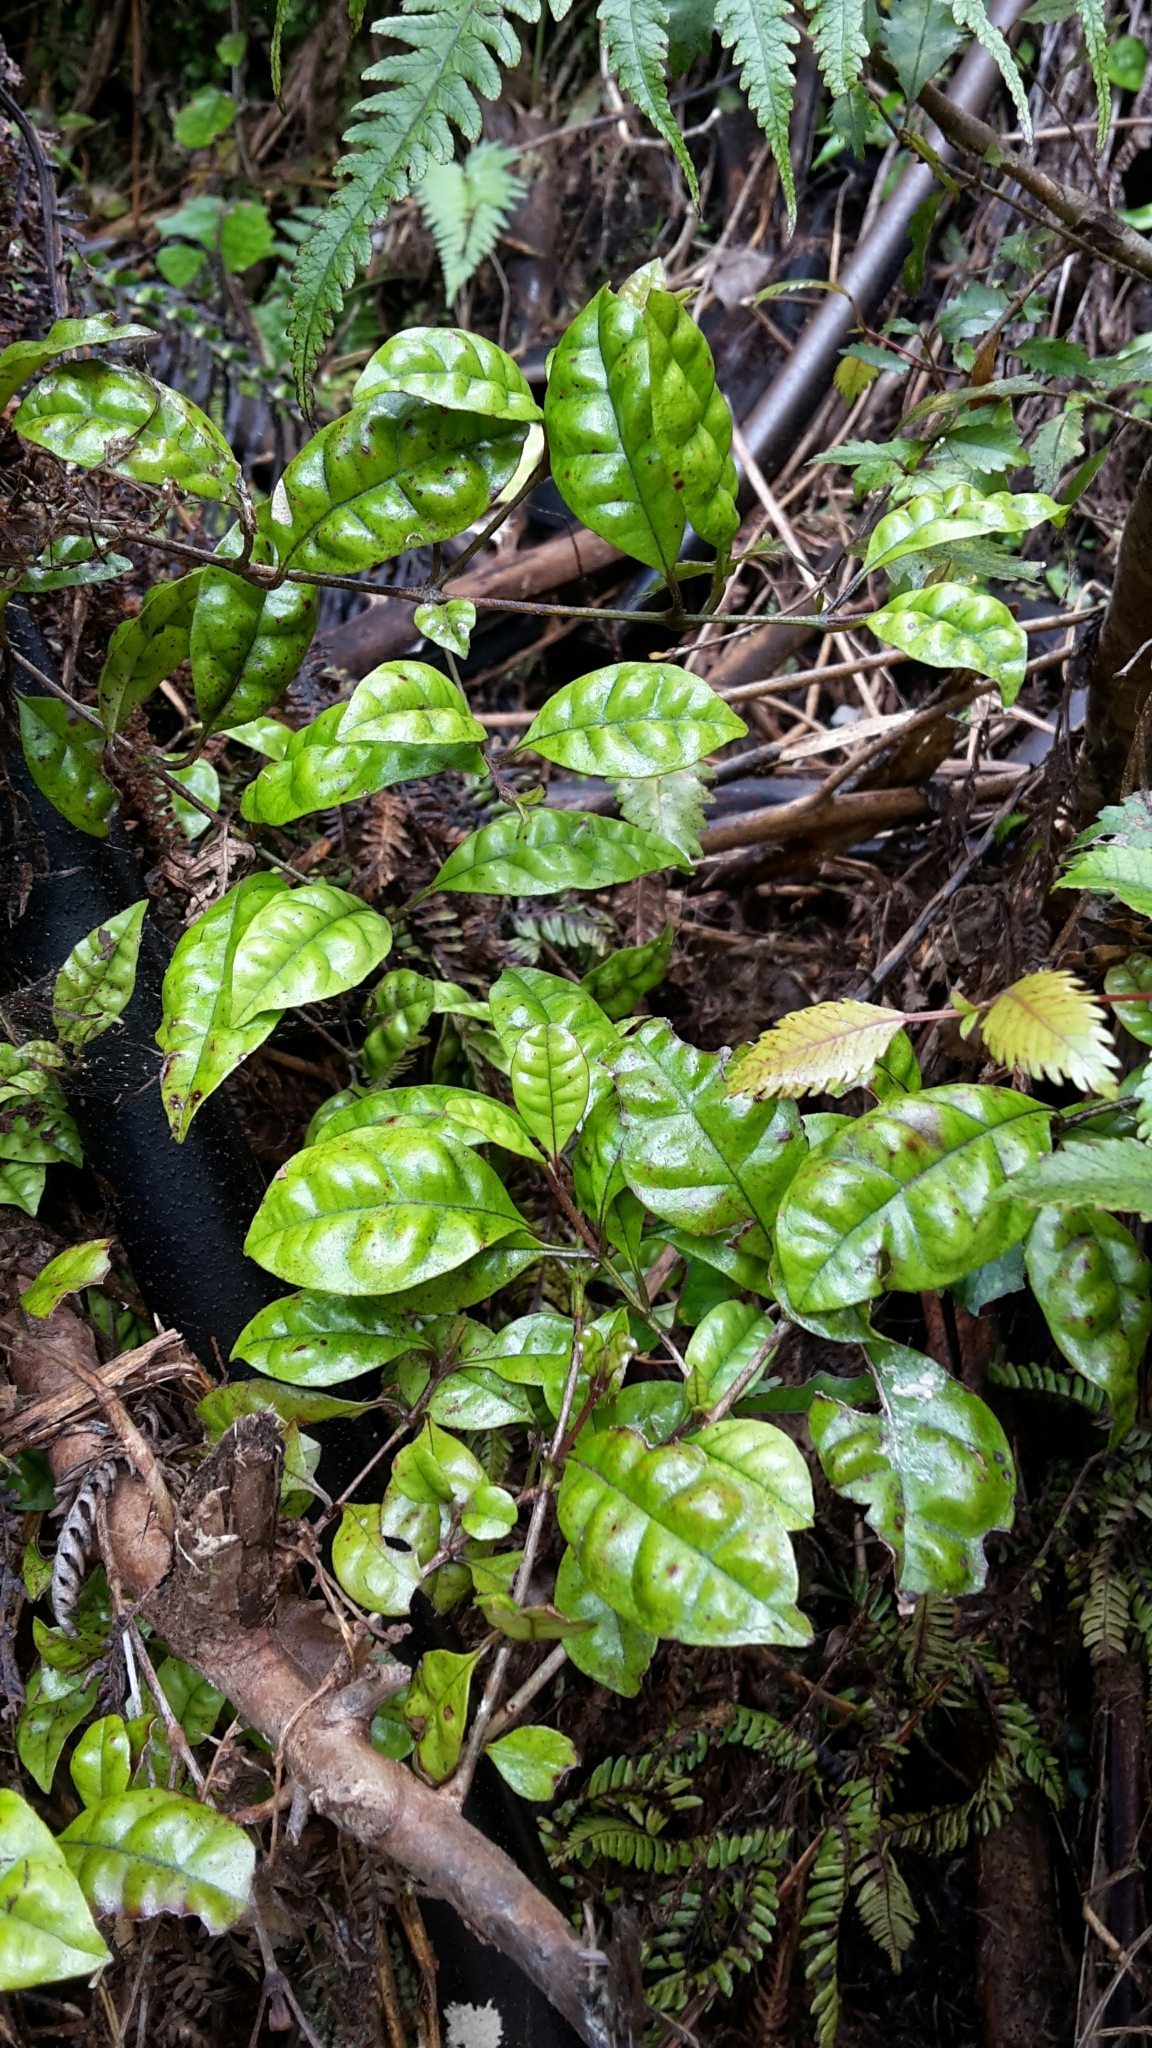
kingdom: Plantae
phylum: Tracheophyta
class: Magnoliopsida
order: Myrtales
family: Myrtaceae
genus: Lophomyrtus
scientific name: Lophomyrtus bullata
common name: Rama rama
